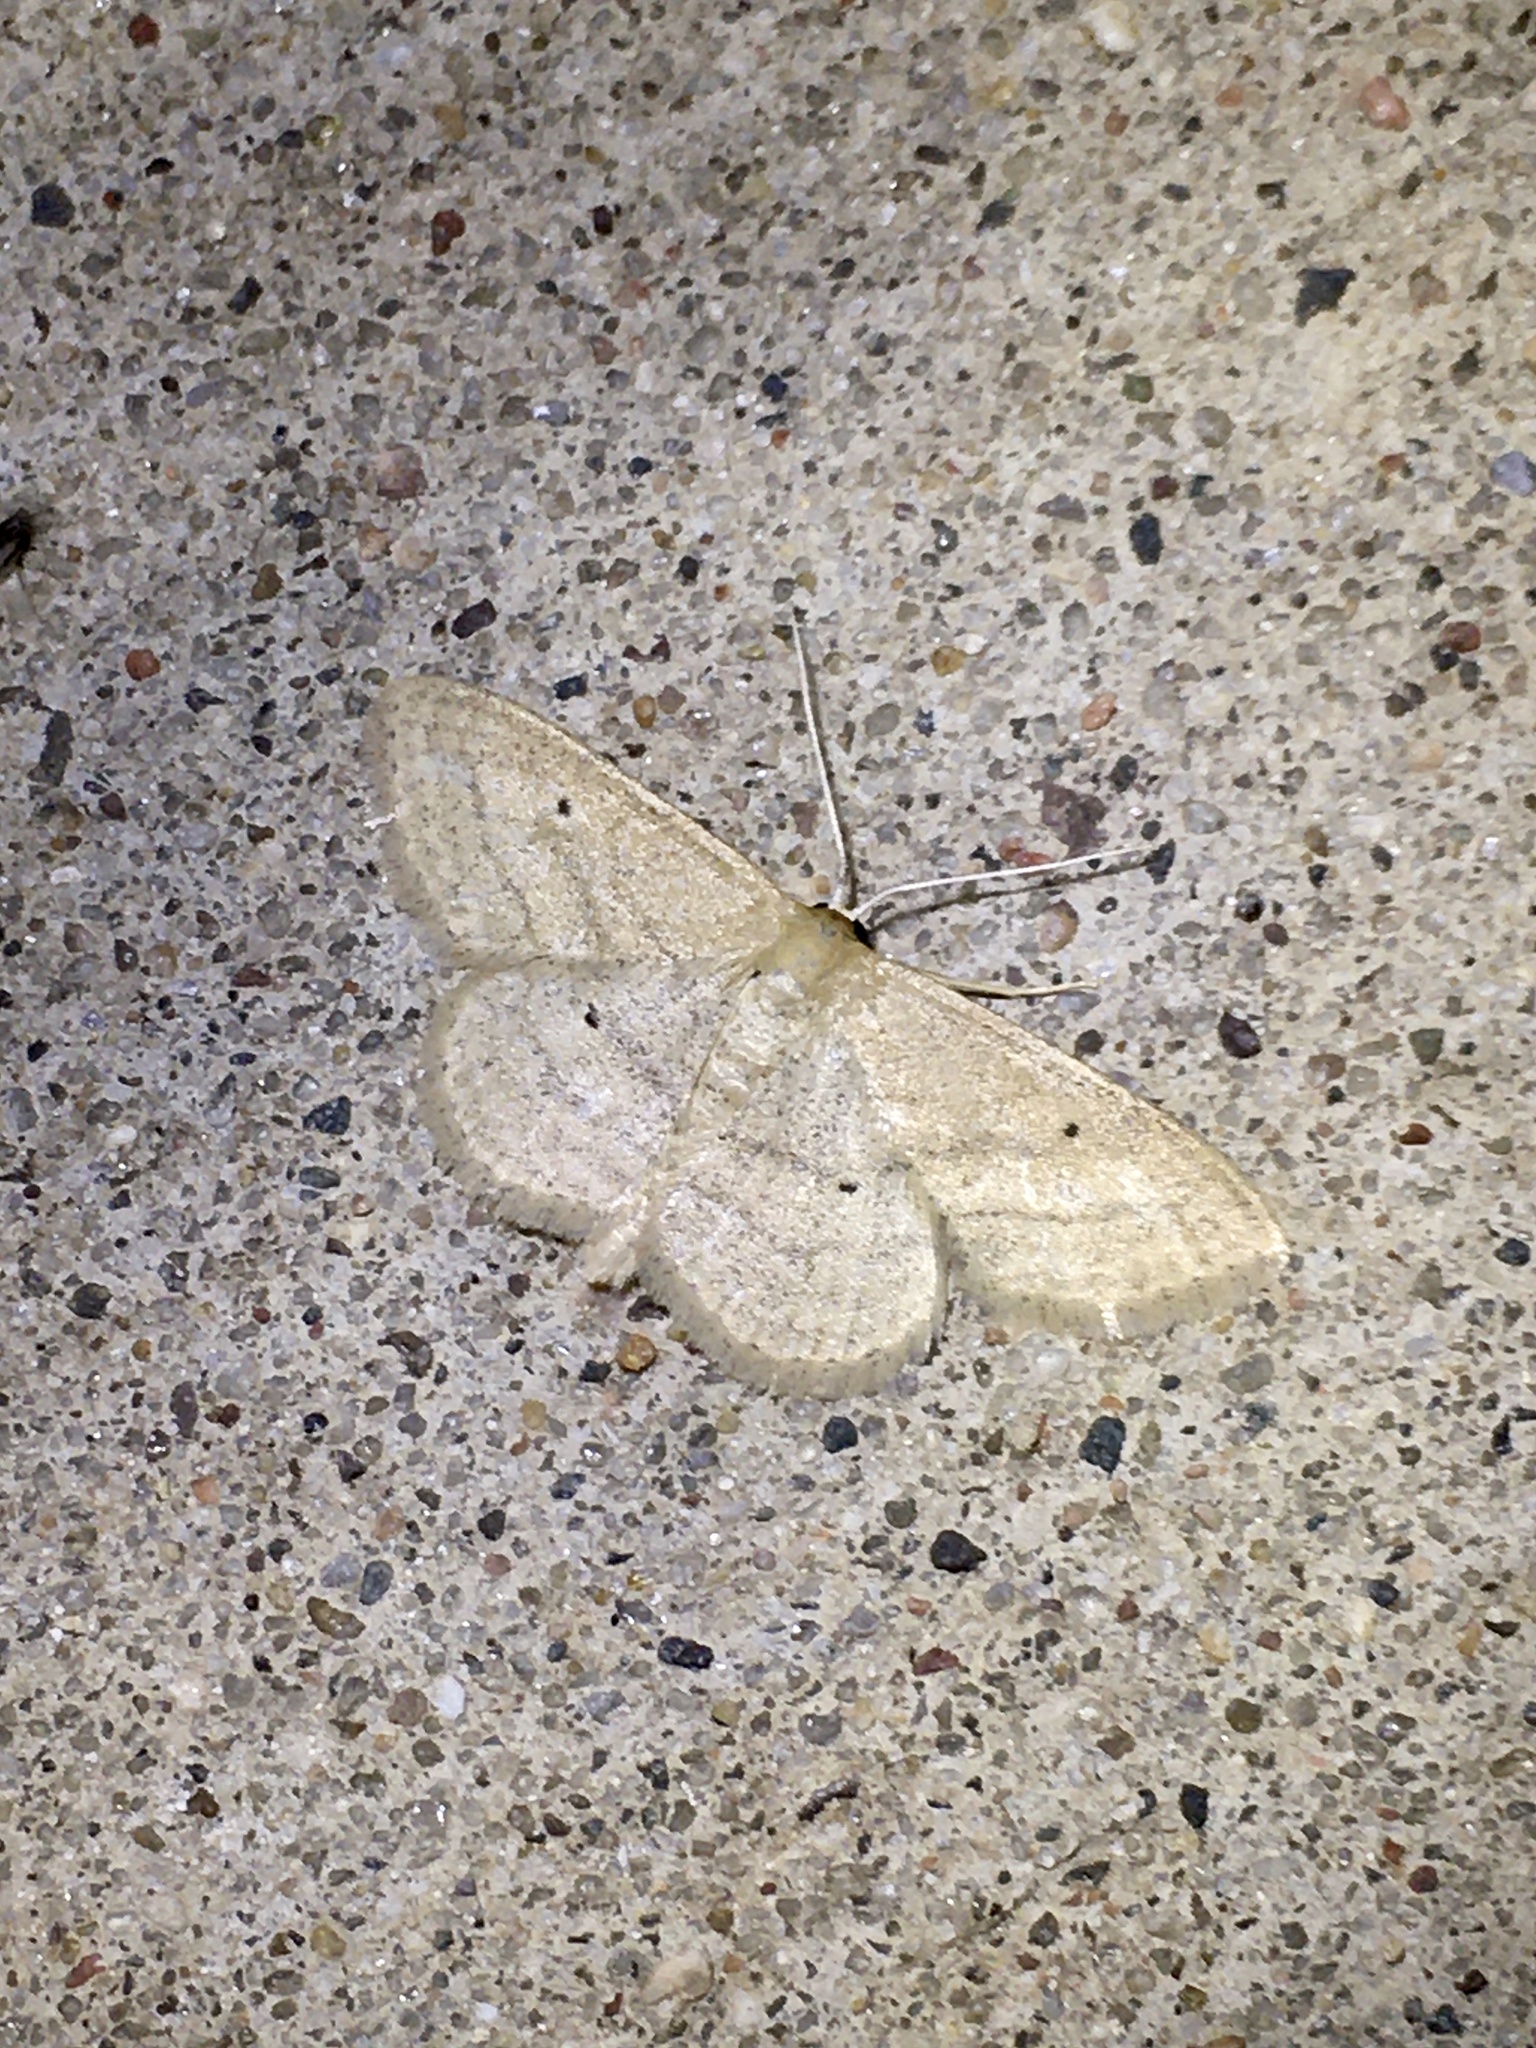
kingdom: Animalia
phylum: Arthropoda
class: Insecta
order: Lepidoptera
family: Geometridae
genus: Scopula
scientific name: Scopula inductata
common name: Soft-lined wave
